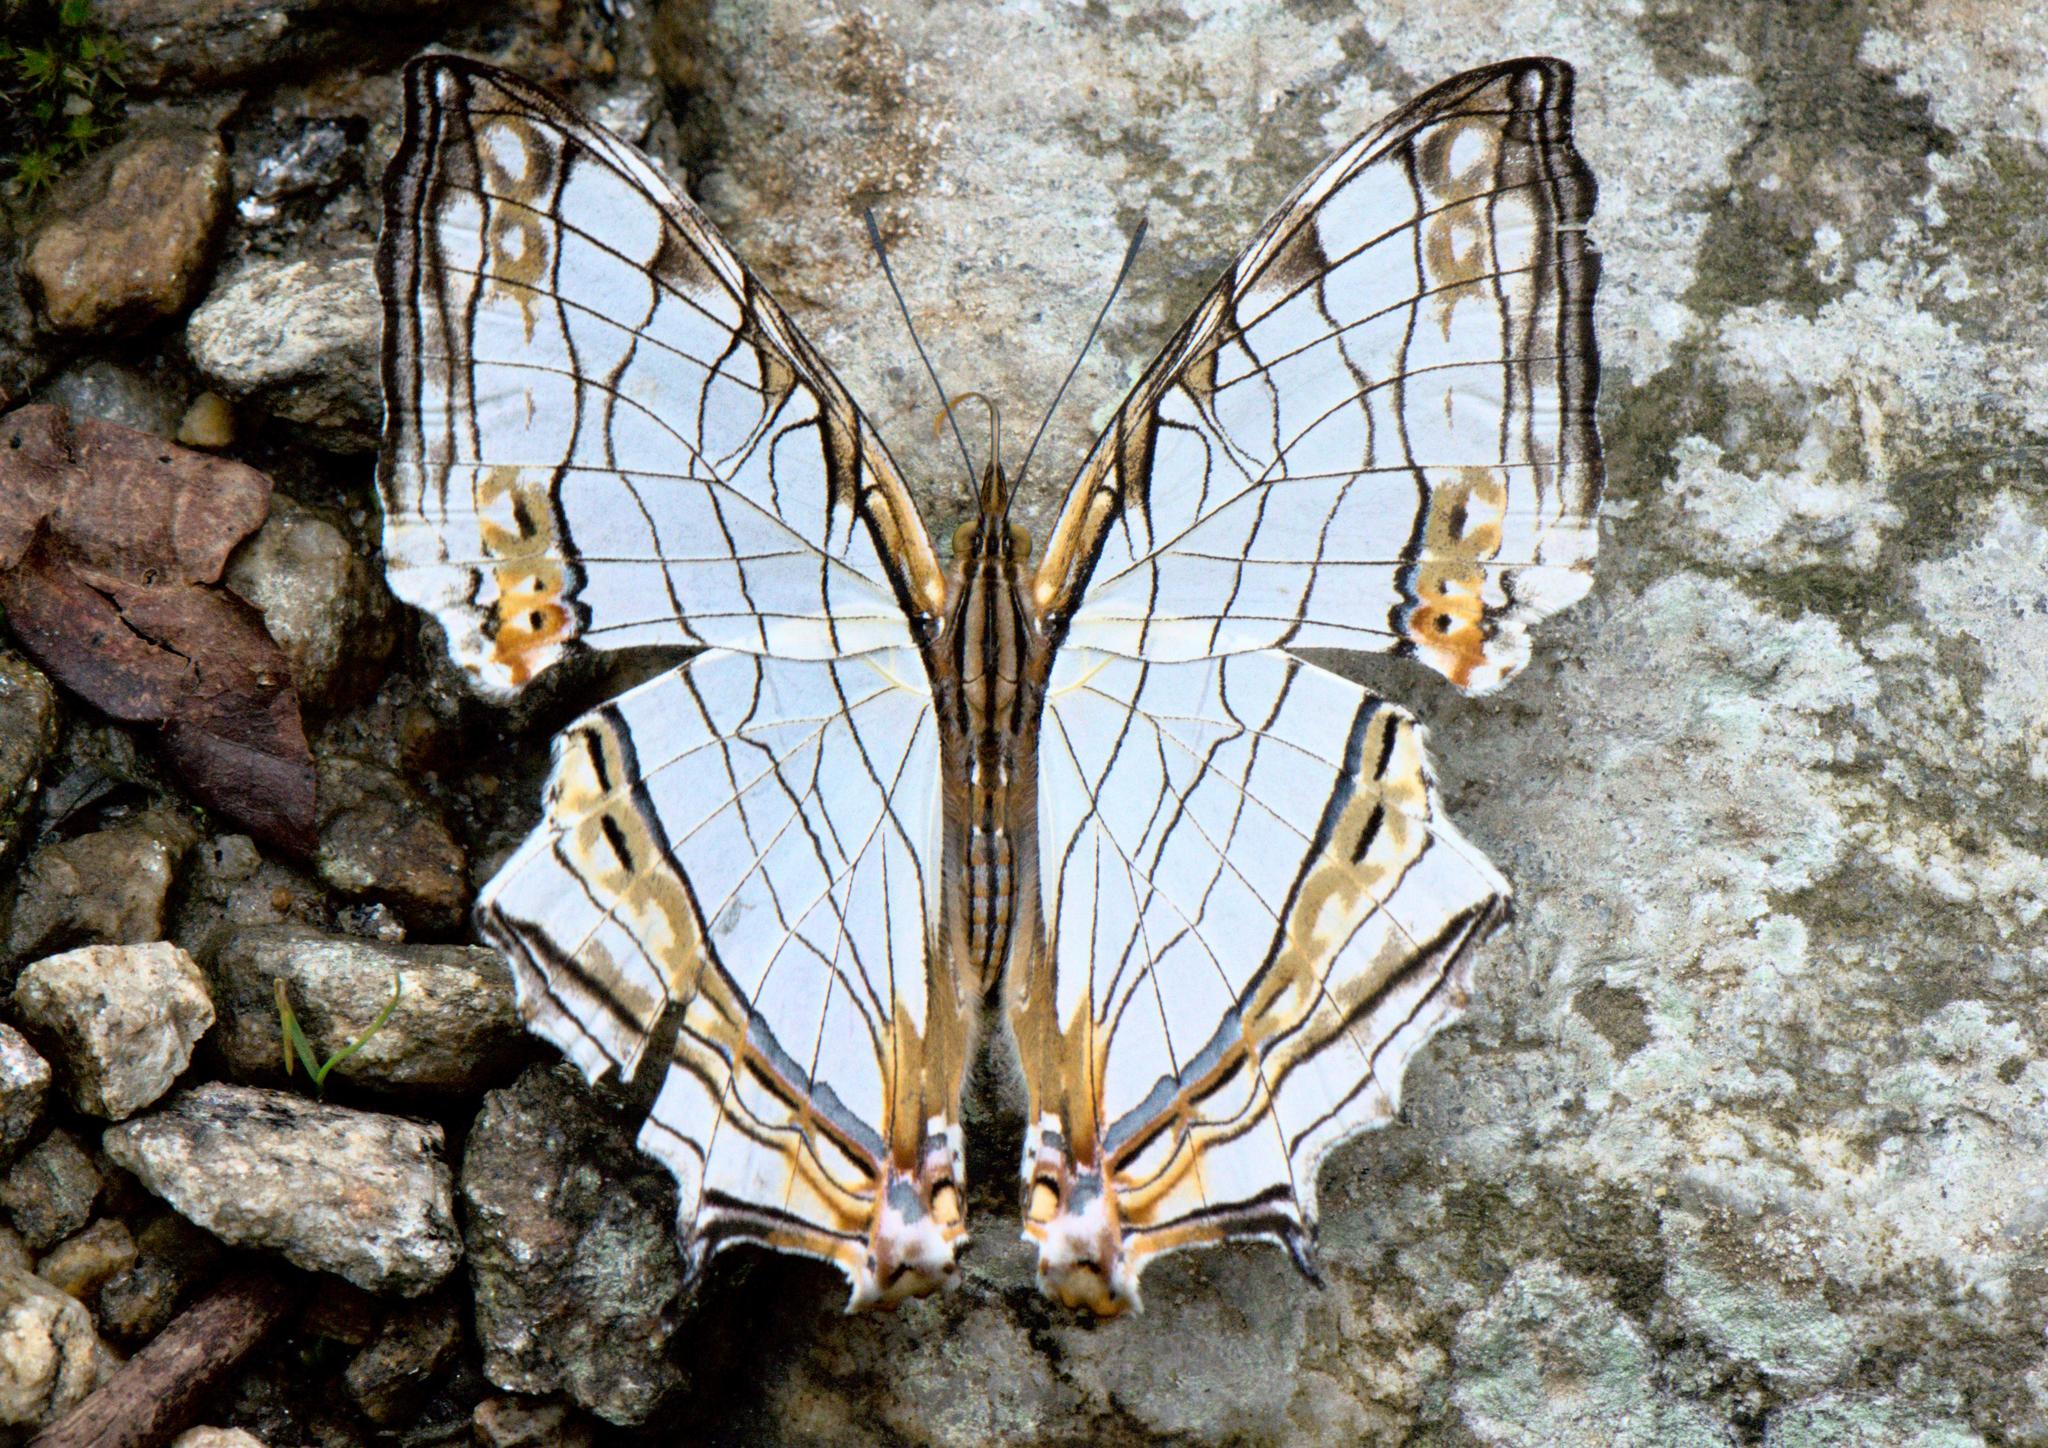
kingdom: Animalia
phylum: Arthropoda
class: Insecta
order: Lepidoptera
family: Nymphalidae
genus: Cyrestis
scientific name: Cyrestis thyodamas
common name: Common mapwing
